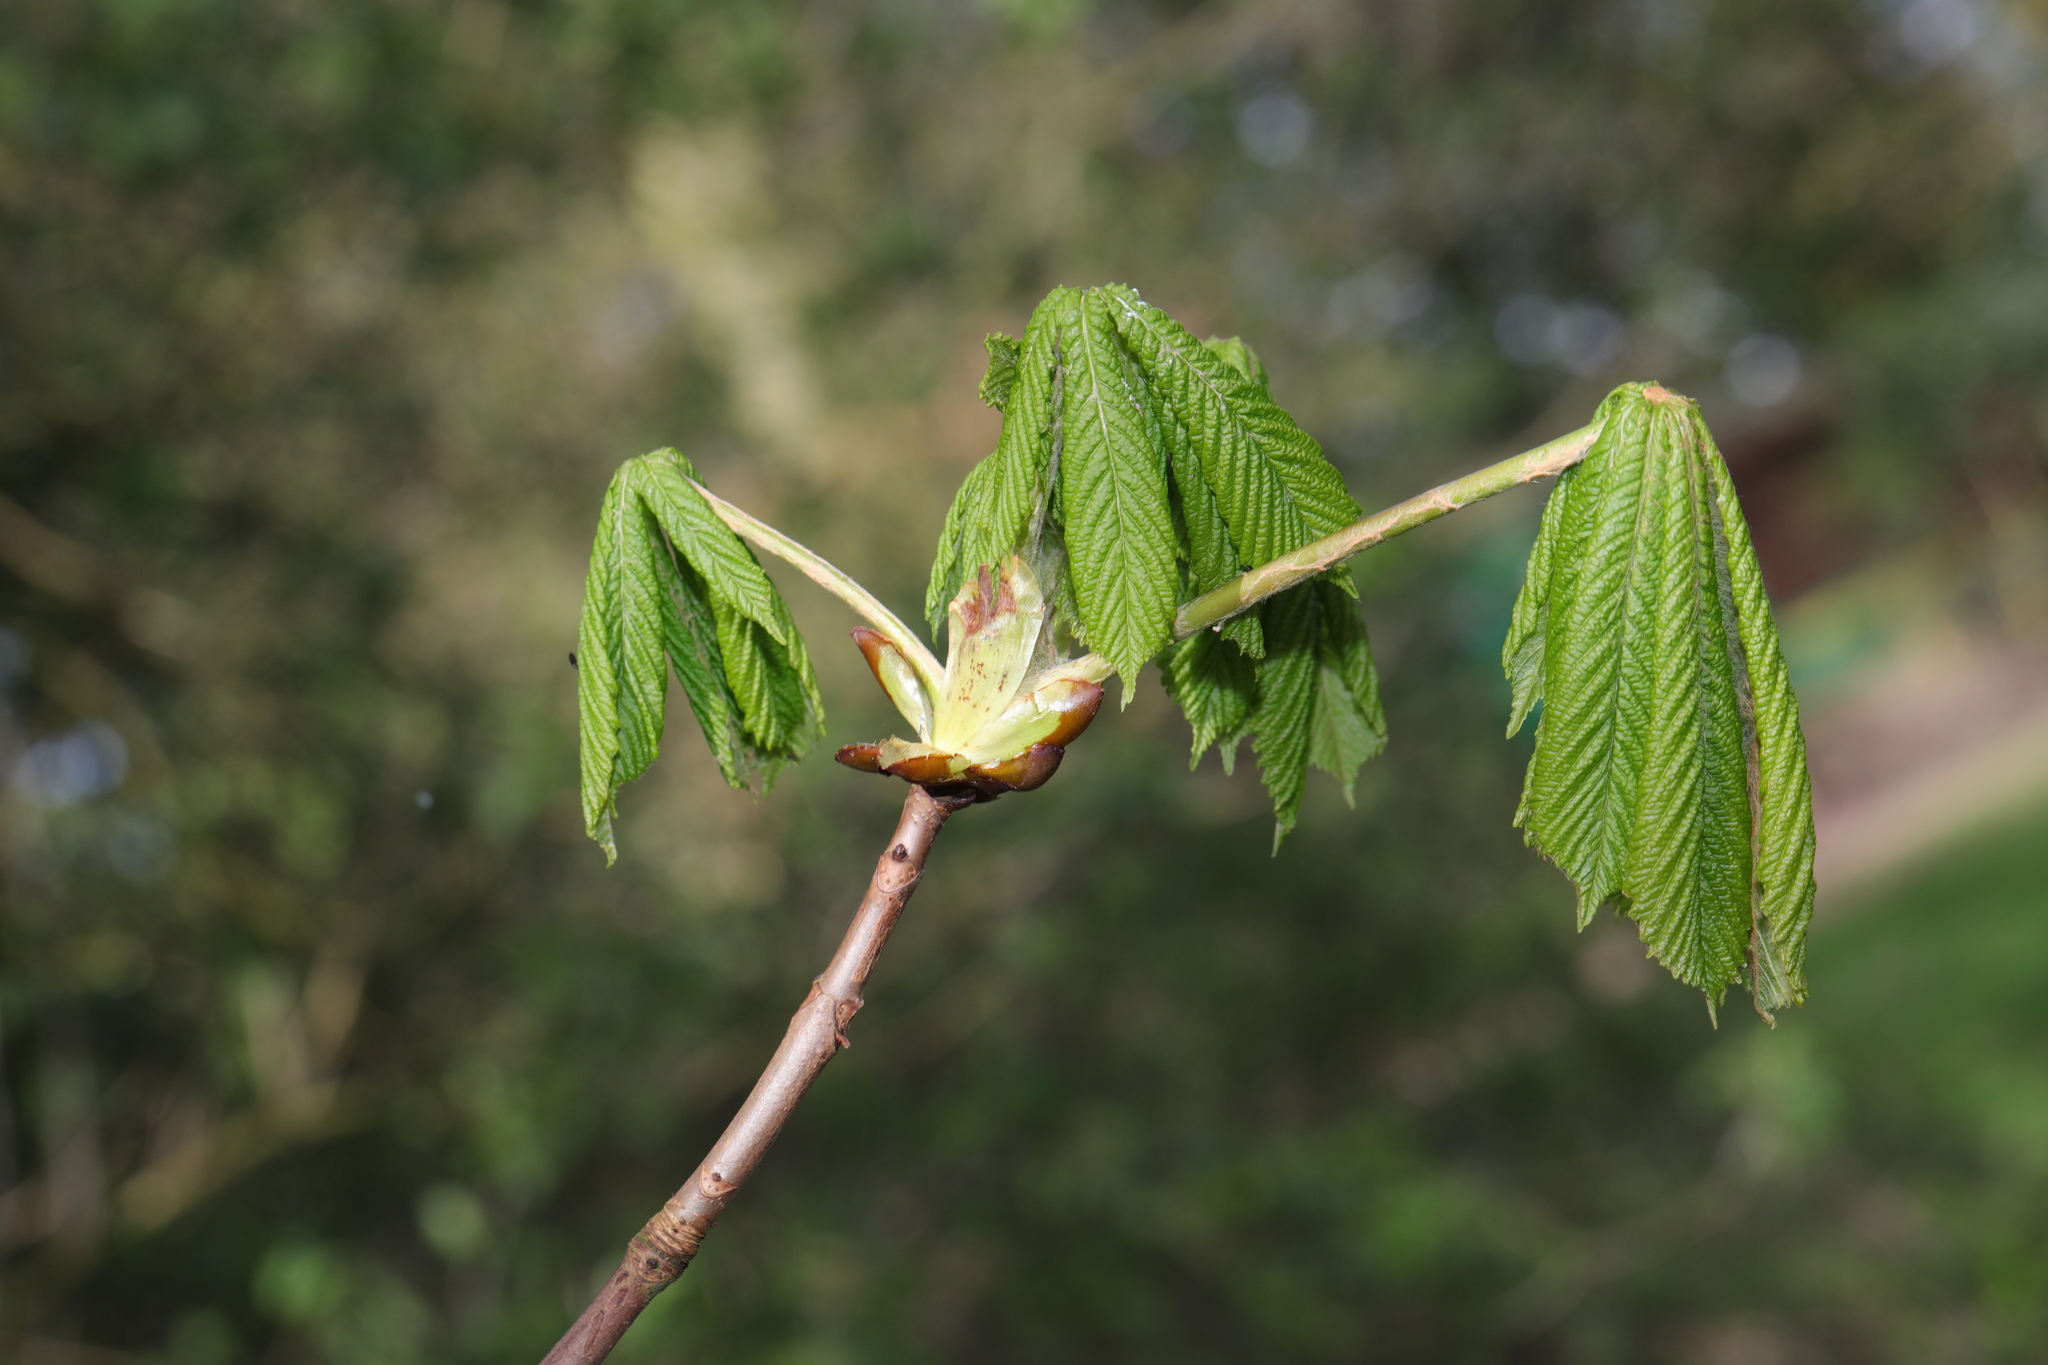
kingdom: Plantae
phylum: Tracheophyta
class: Magnoliopsida
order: Sapindales
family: Sapindaceae
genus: Aesculus
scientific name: Aesculus hippocastanum
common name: Horse-chestnut
